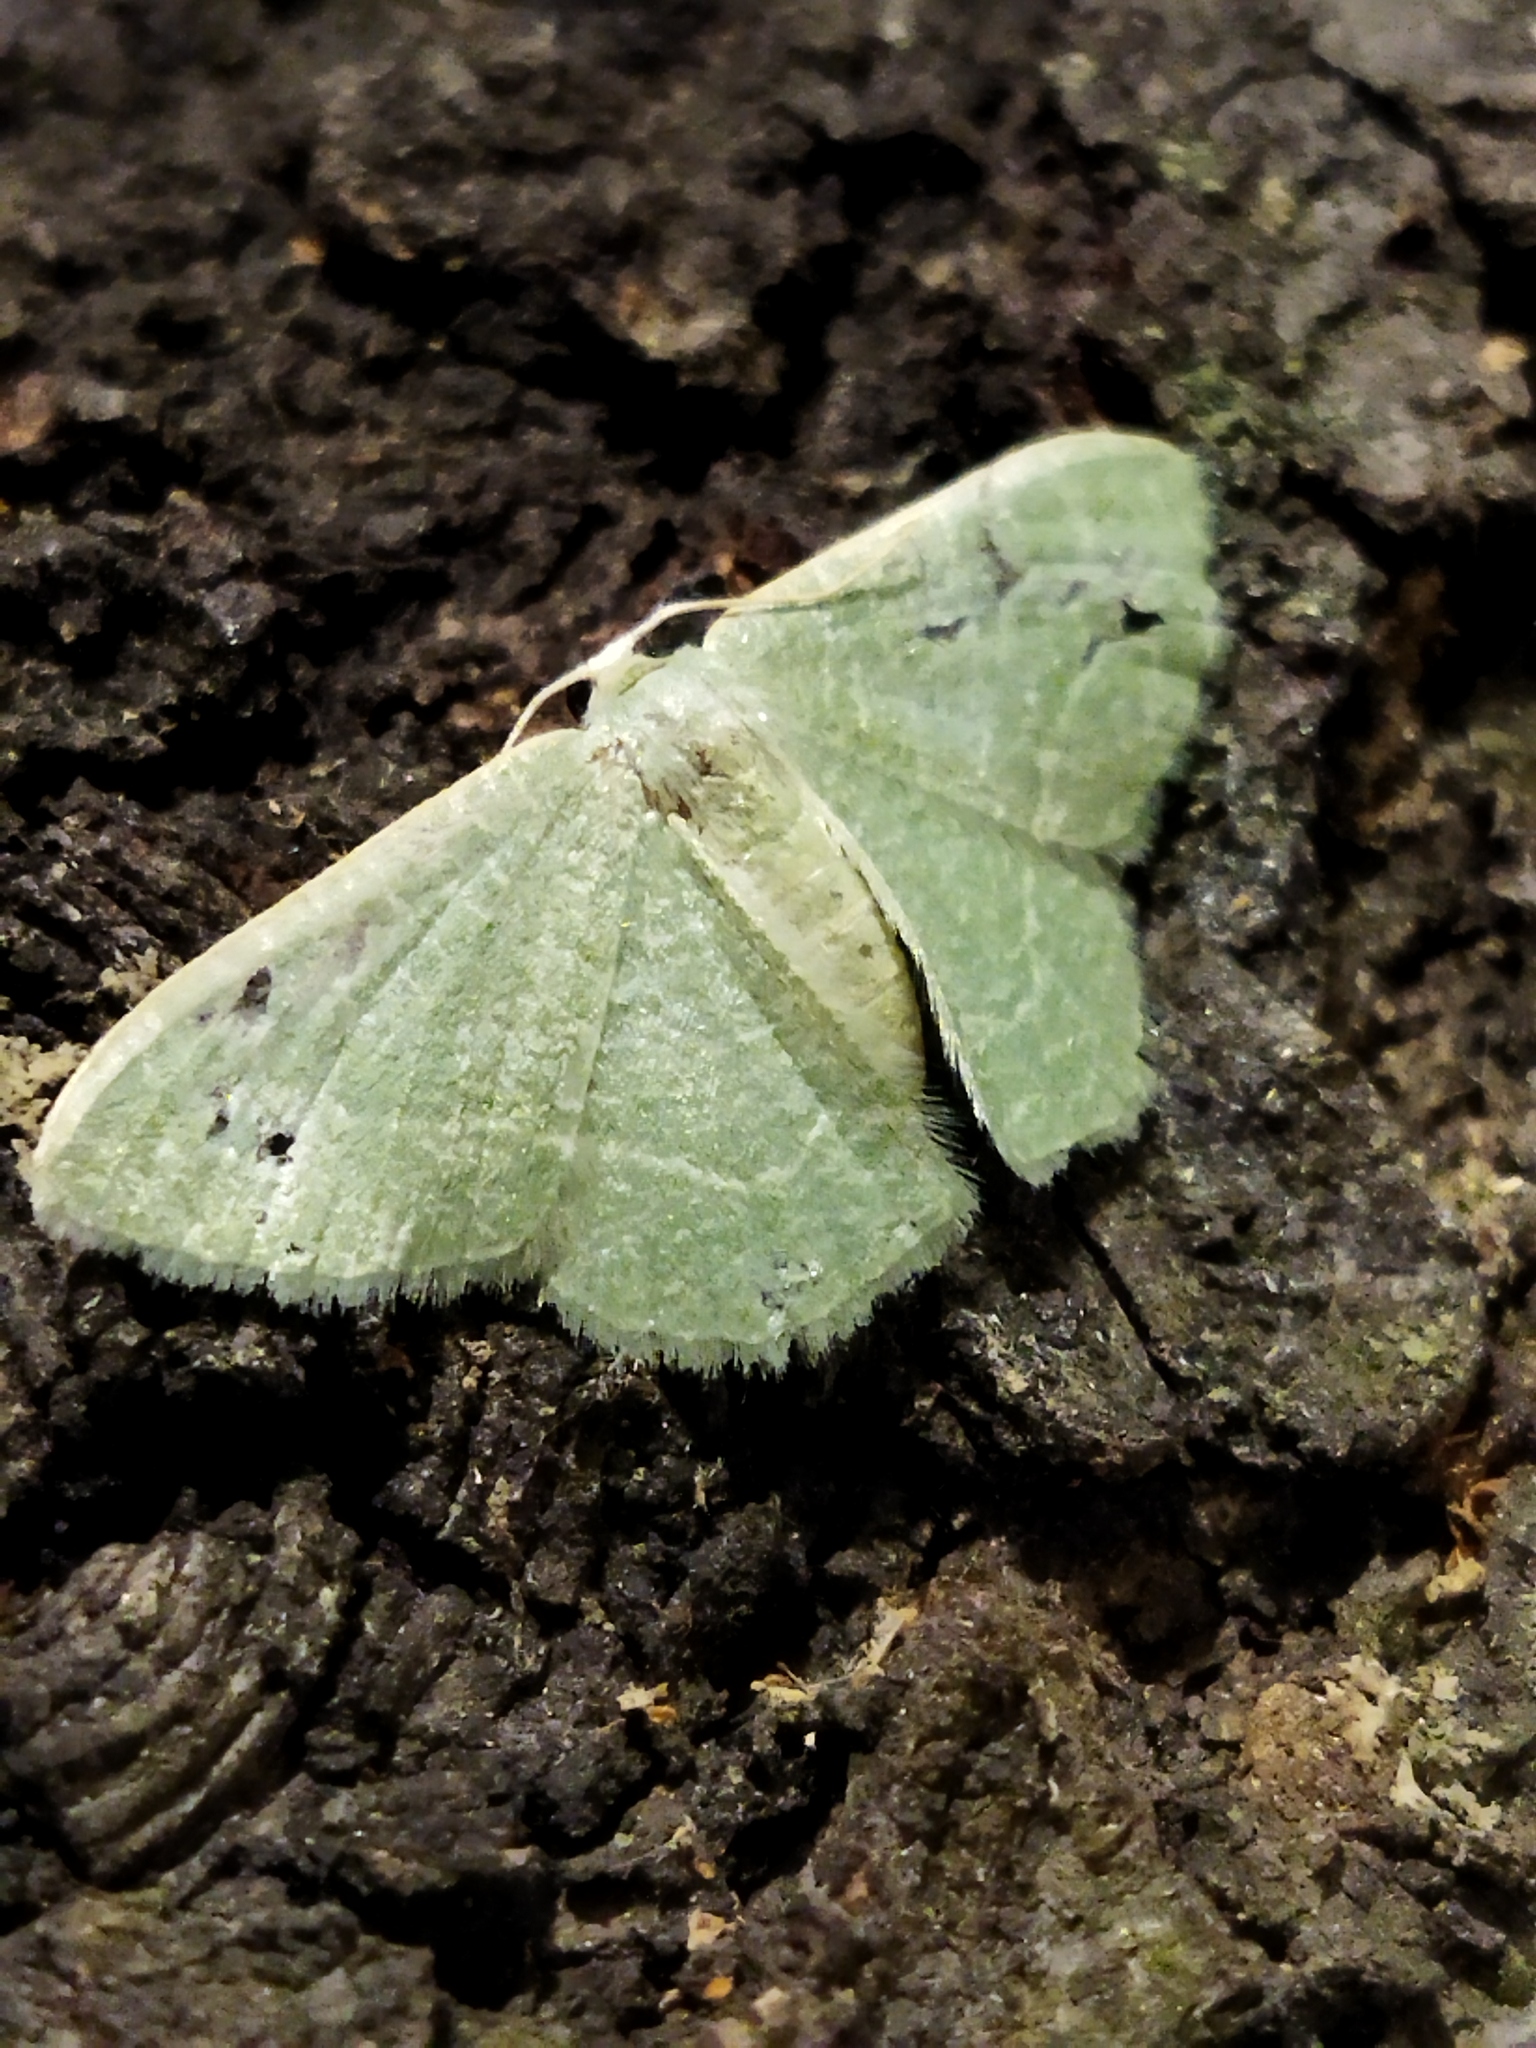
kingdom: Animalia
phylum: Arthropoda
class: Insecta
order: Lepidoptera
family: Geometridae
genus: Chlorissa
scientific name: Chlorissa etruscaria
